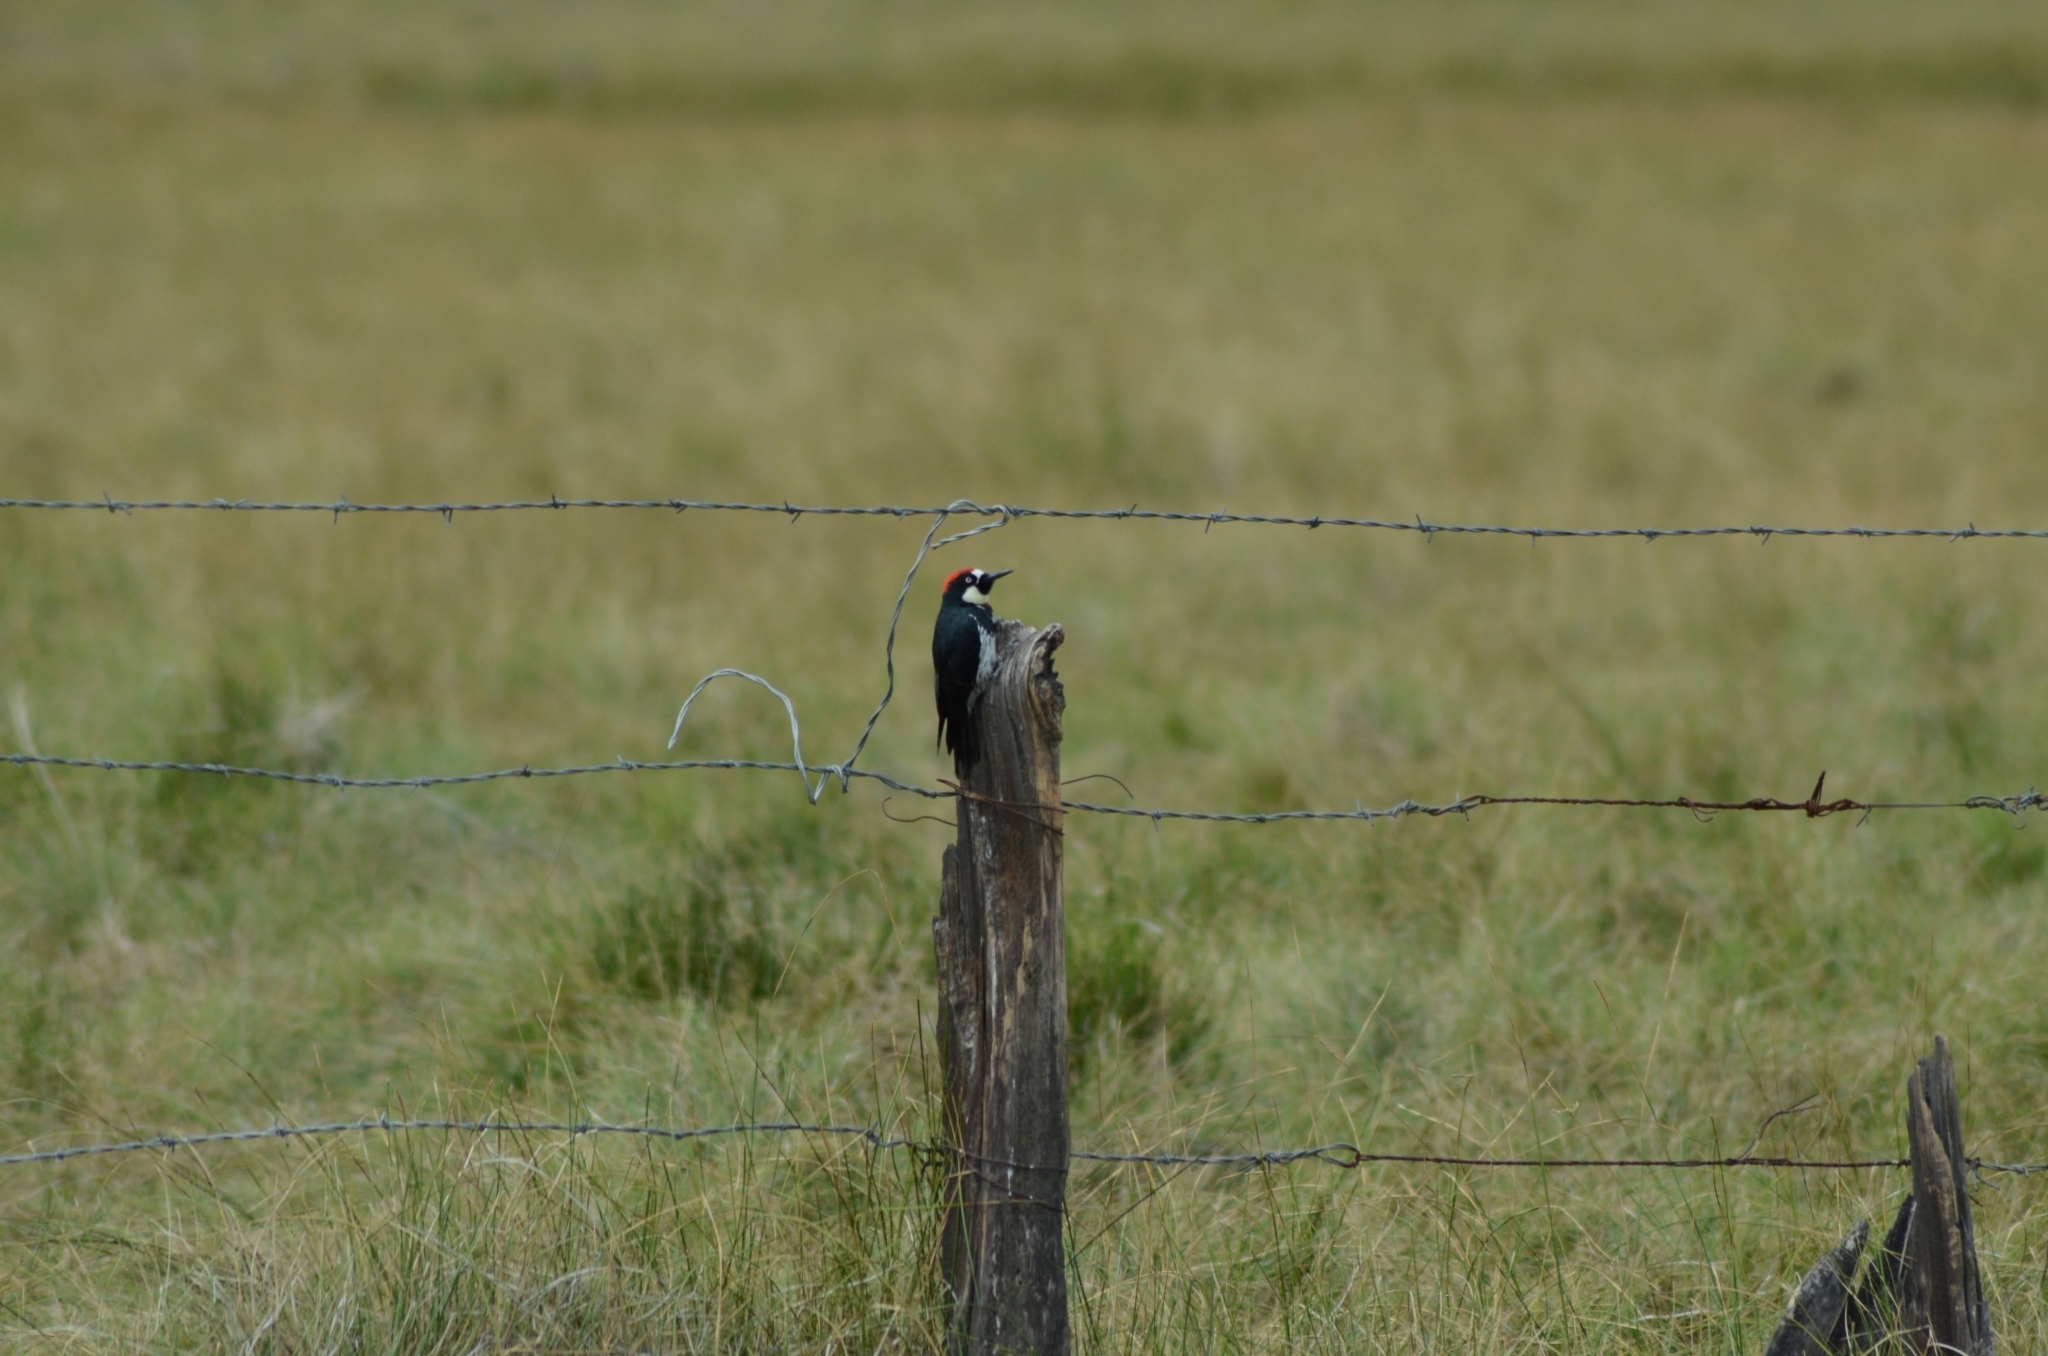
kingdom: Animalia
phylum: Chordata
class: Aves
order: Piciformes
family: Picidae
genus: Melanerpes
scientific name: Melanerpes formicivorus
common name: Acorn woodpecker
